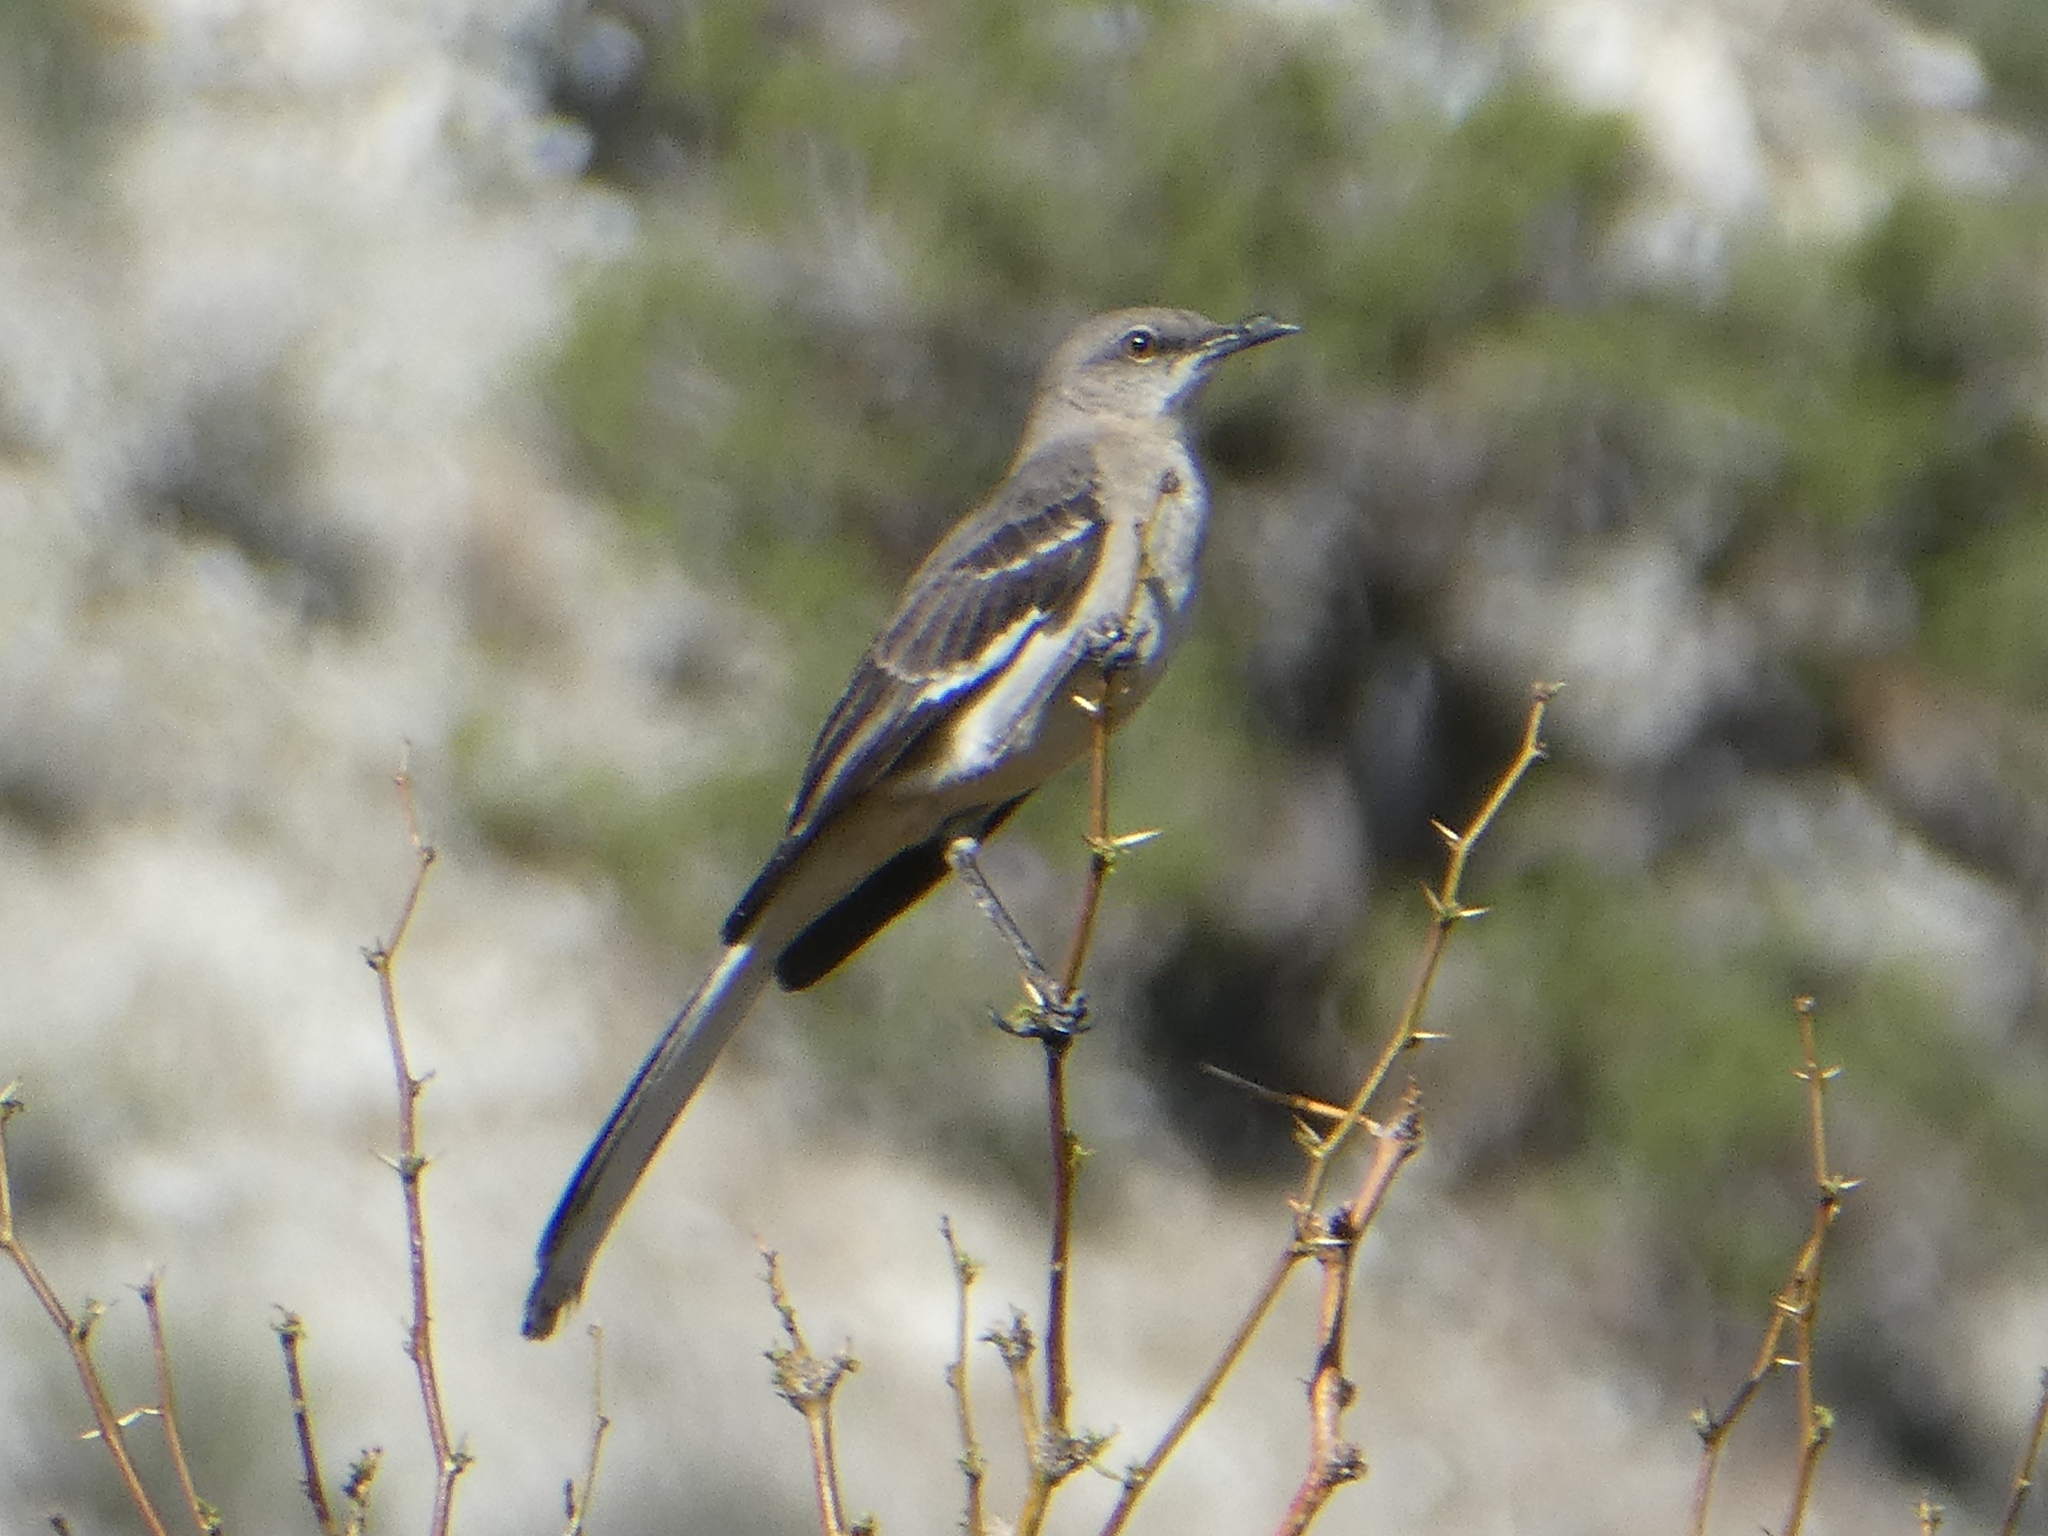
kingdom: Animalia
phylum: Chordata
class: Aves
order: Passeriformes
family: Mimidae
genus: Mimus
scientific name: Mimus polyglottos
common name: Northern mockingbird
